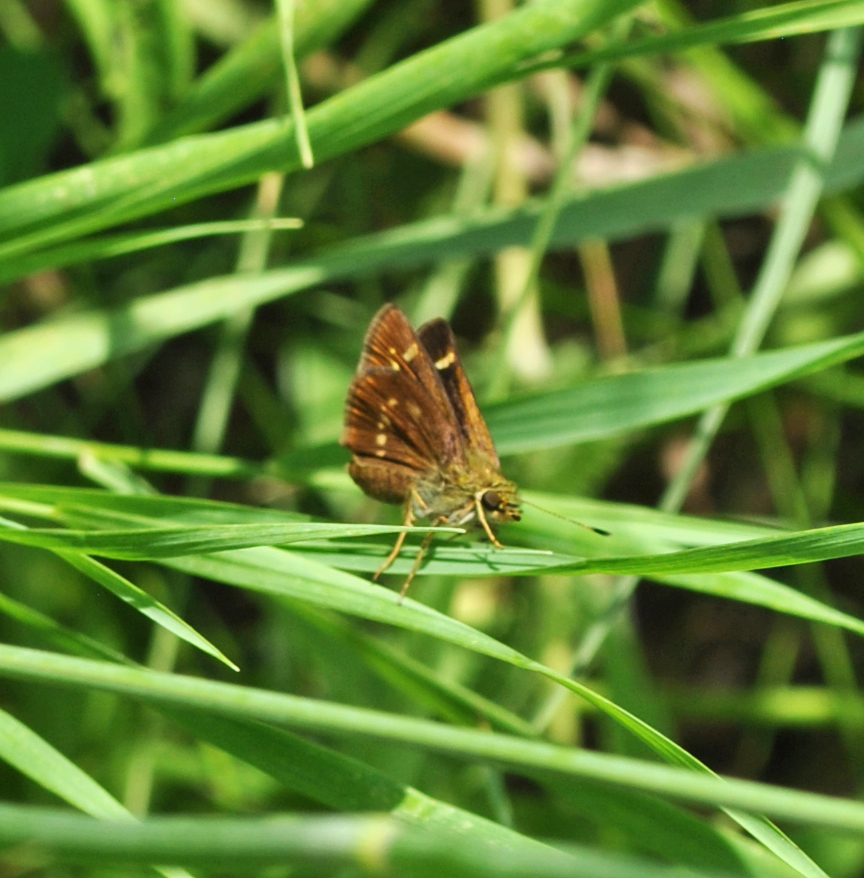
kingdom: Animalia
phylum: Arthropoda
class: Insecta
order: Lepidoptera
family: Hesperiidae
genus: Vernia
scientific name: Vernia verna
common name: Little glassywing
